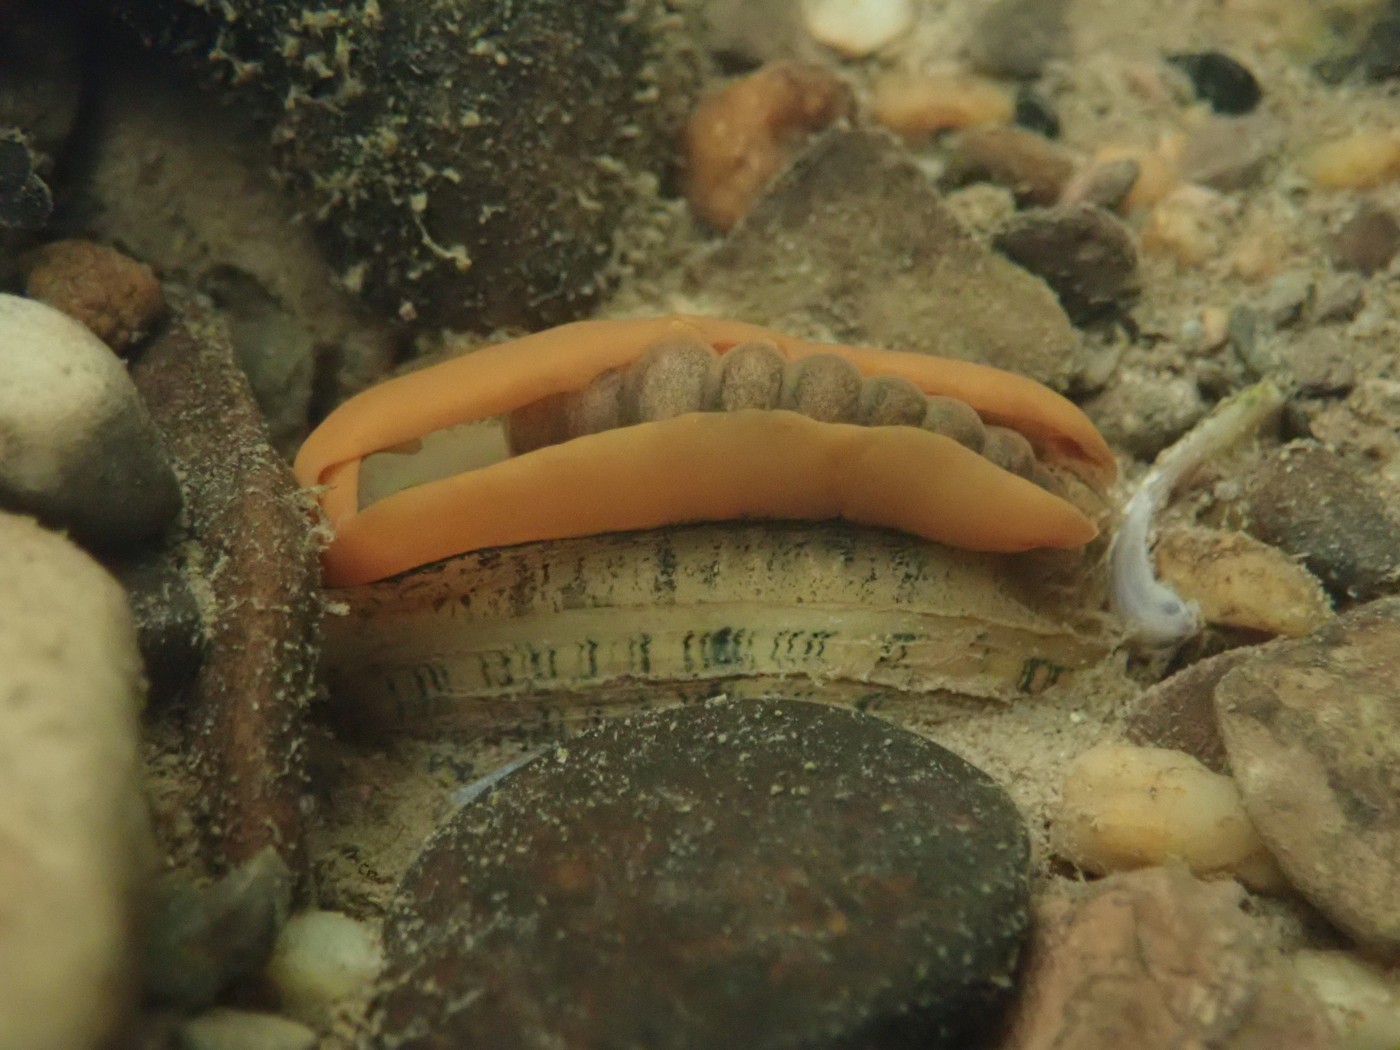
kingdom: Animalia
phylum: Mollusca
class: Bivalvia
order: Unionida
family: Unionidae
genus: Lampsilis
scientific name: Lampsilis fasciola
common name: Wavyrayed lampmussel
